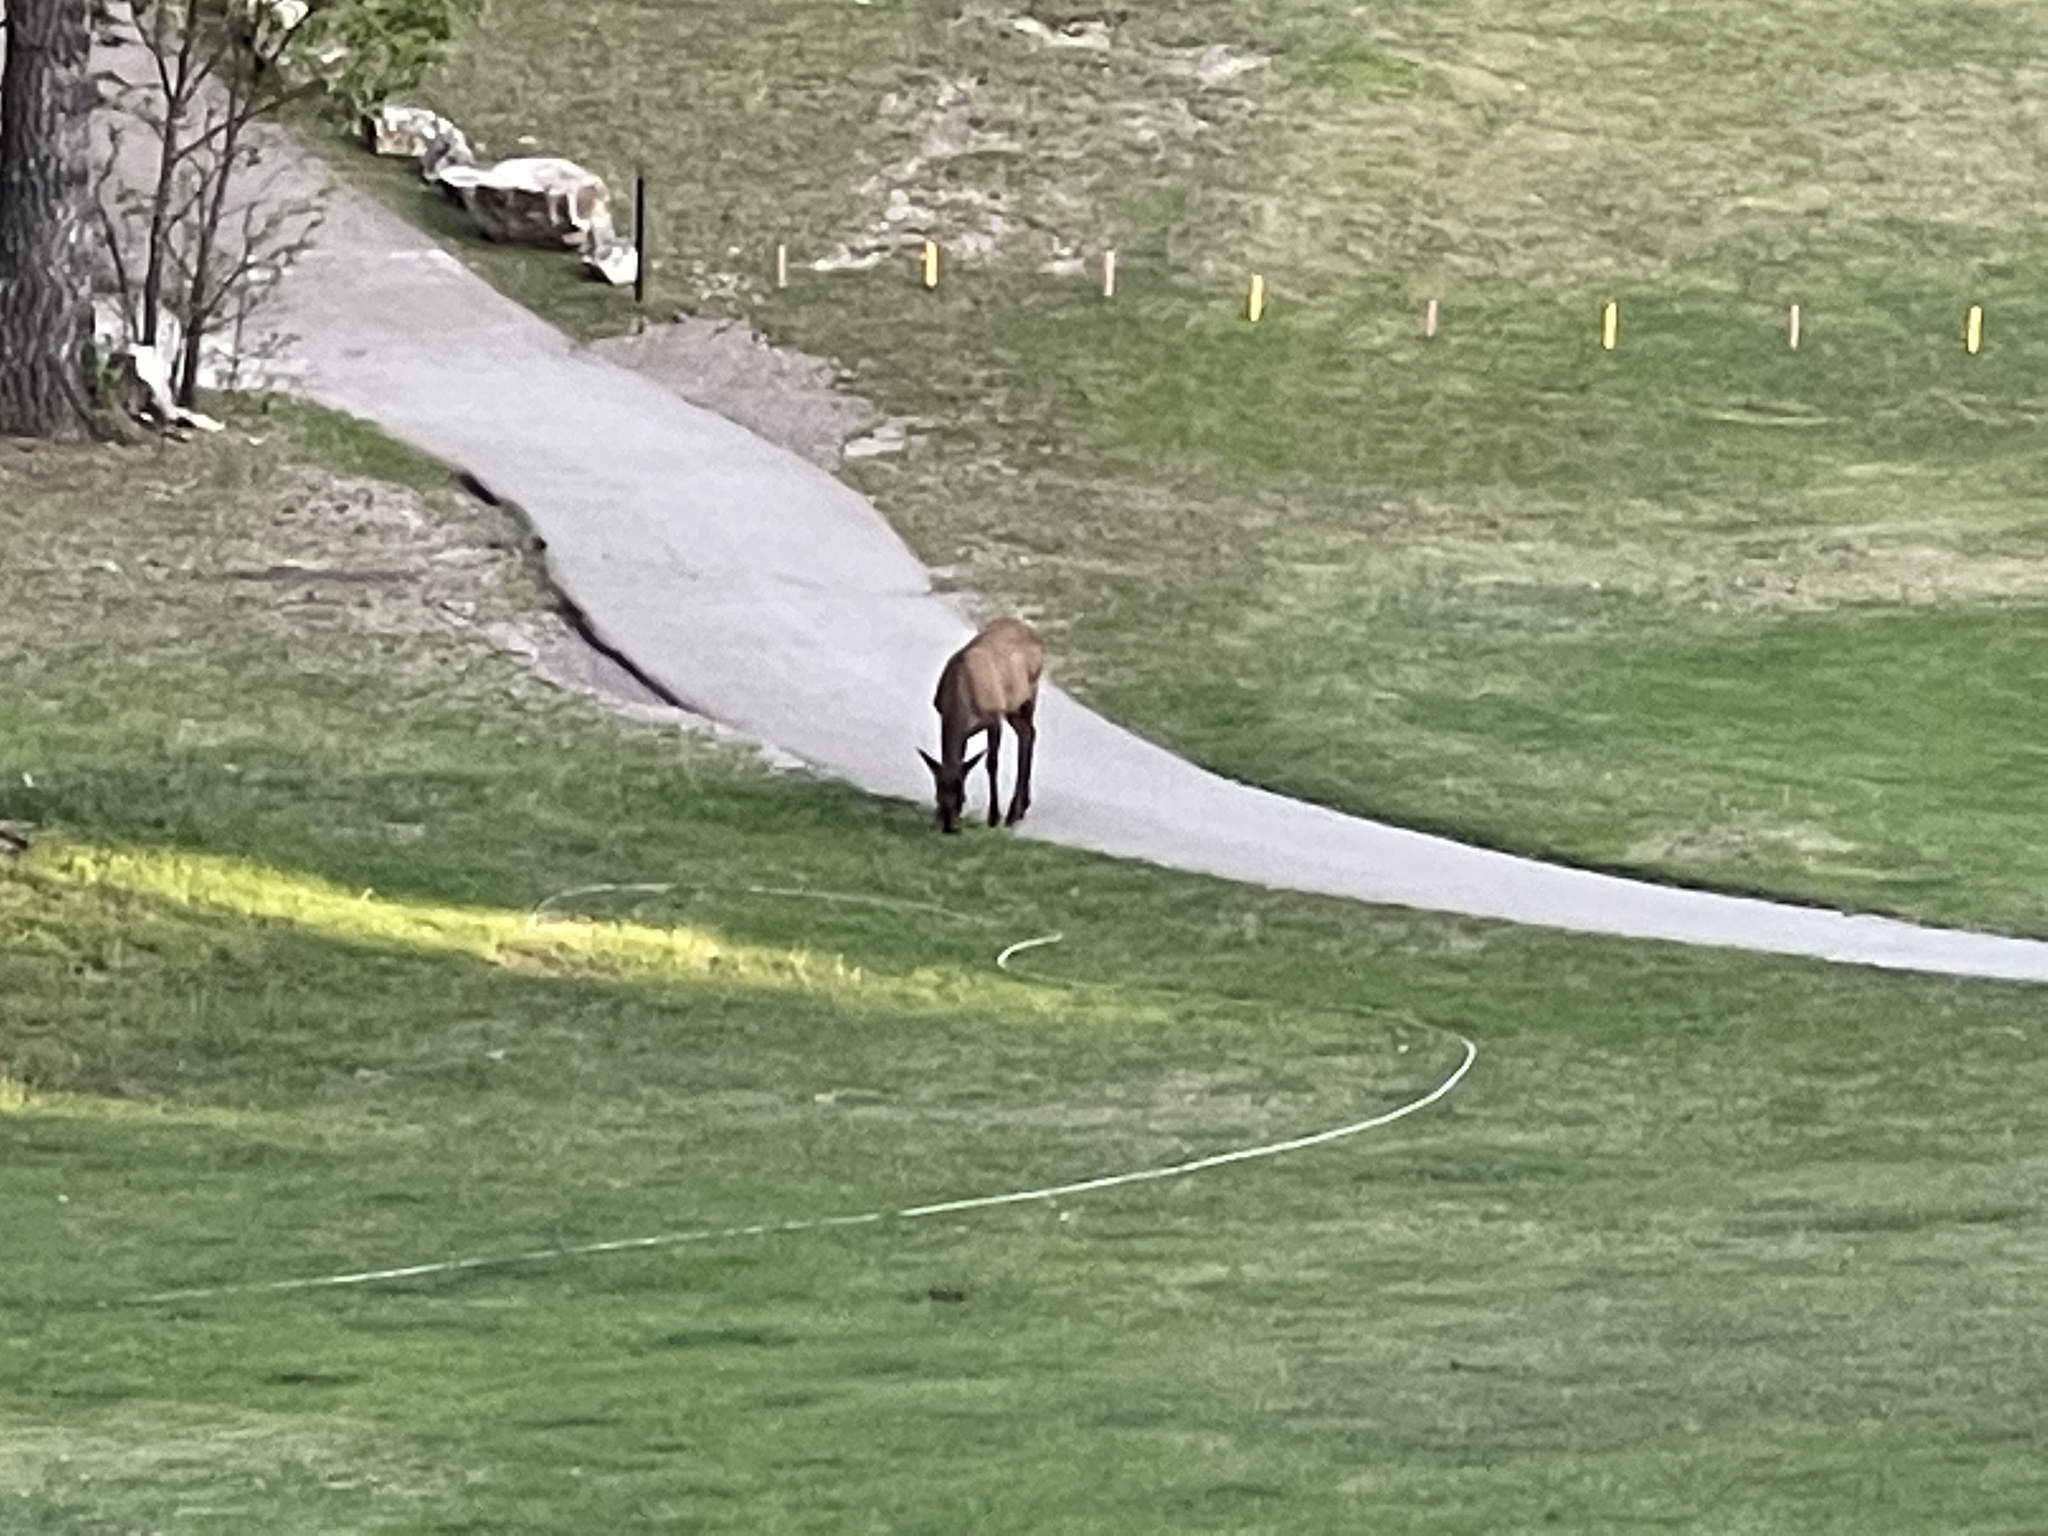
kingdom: Animalia
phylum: Chordata
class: Mammalia
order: Artiodactyla
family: Cervidae
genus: Cervus
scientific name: Cervus elaphus
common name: Red deer
